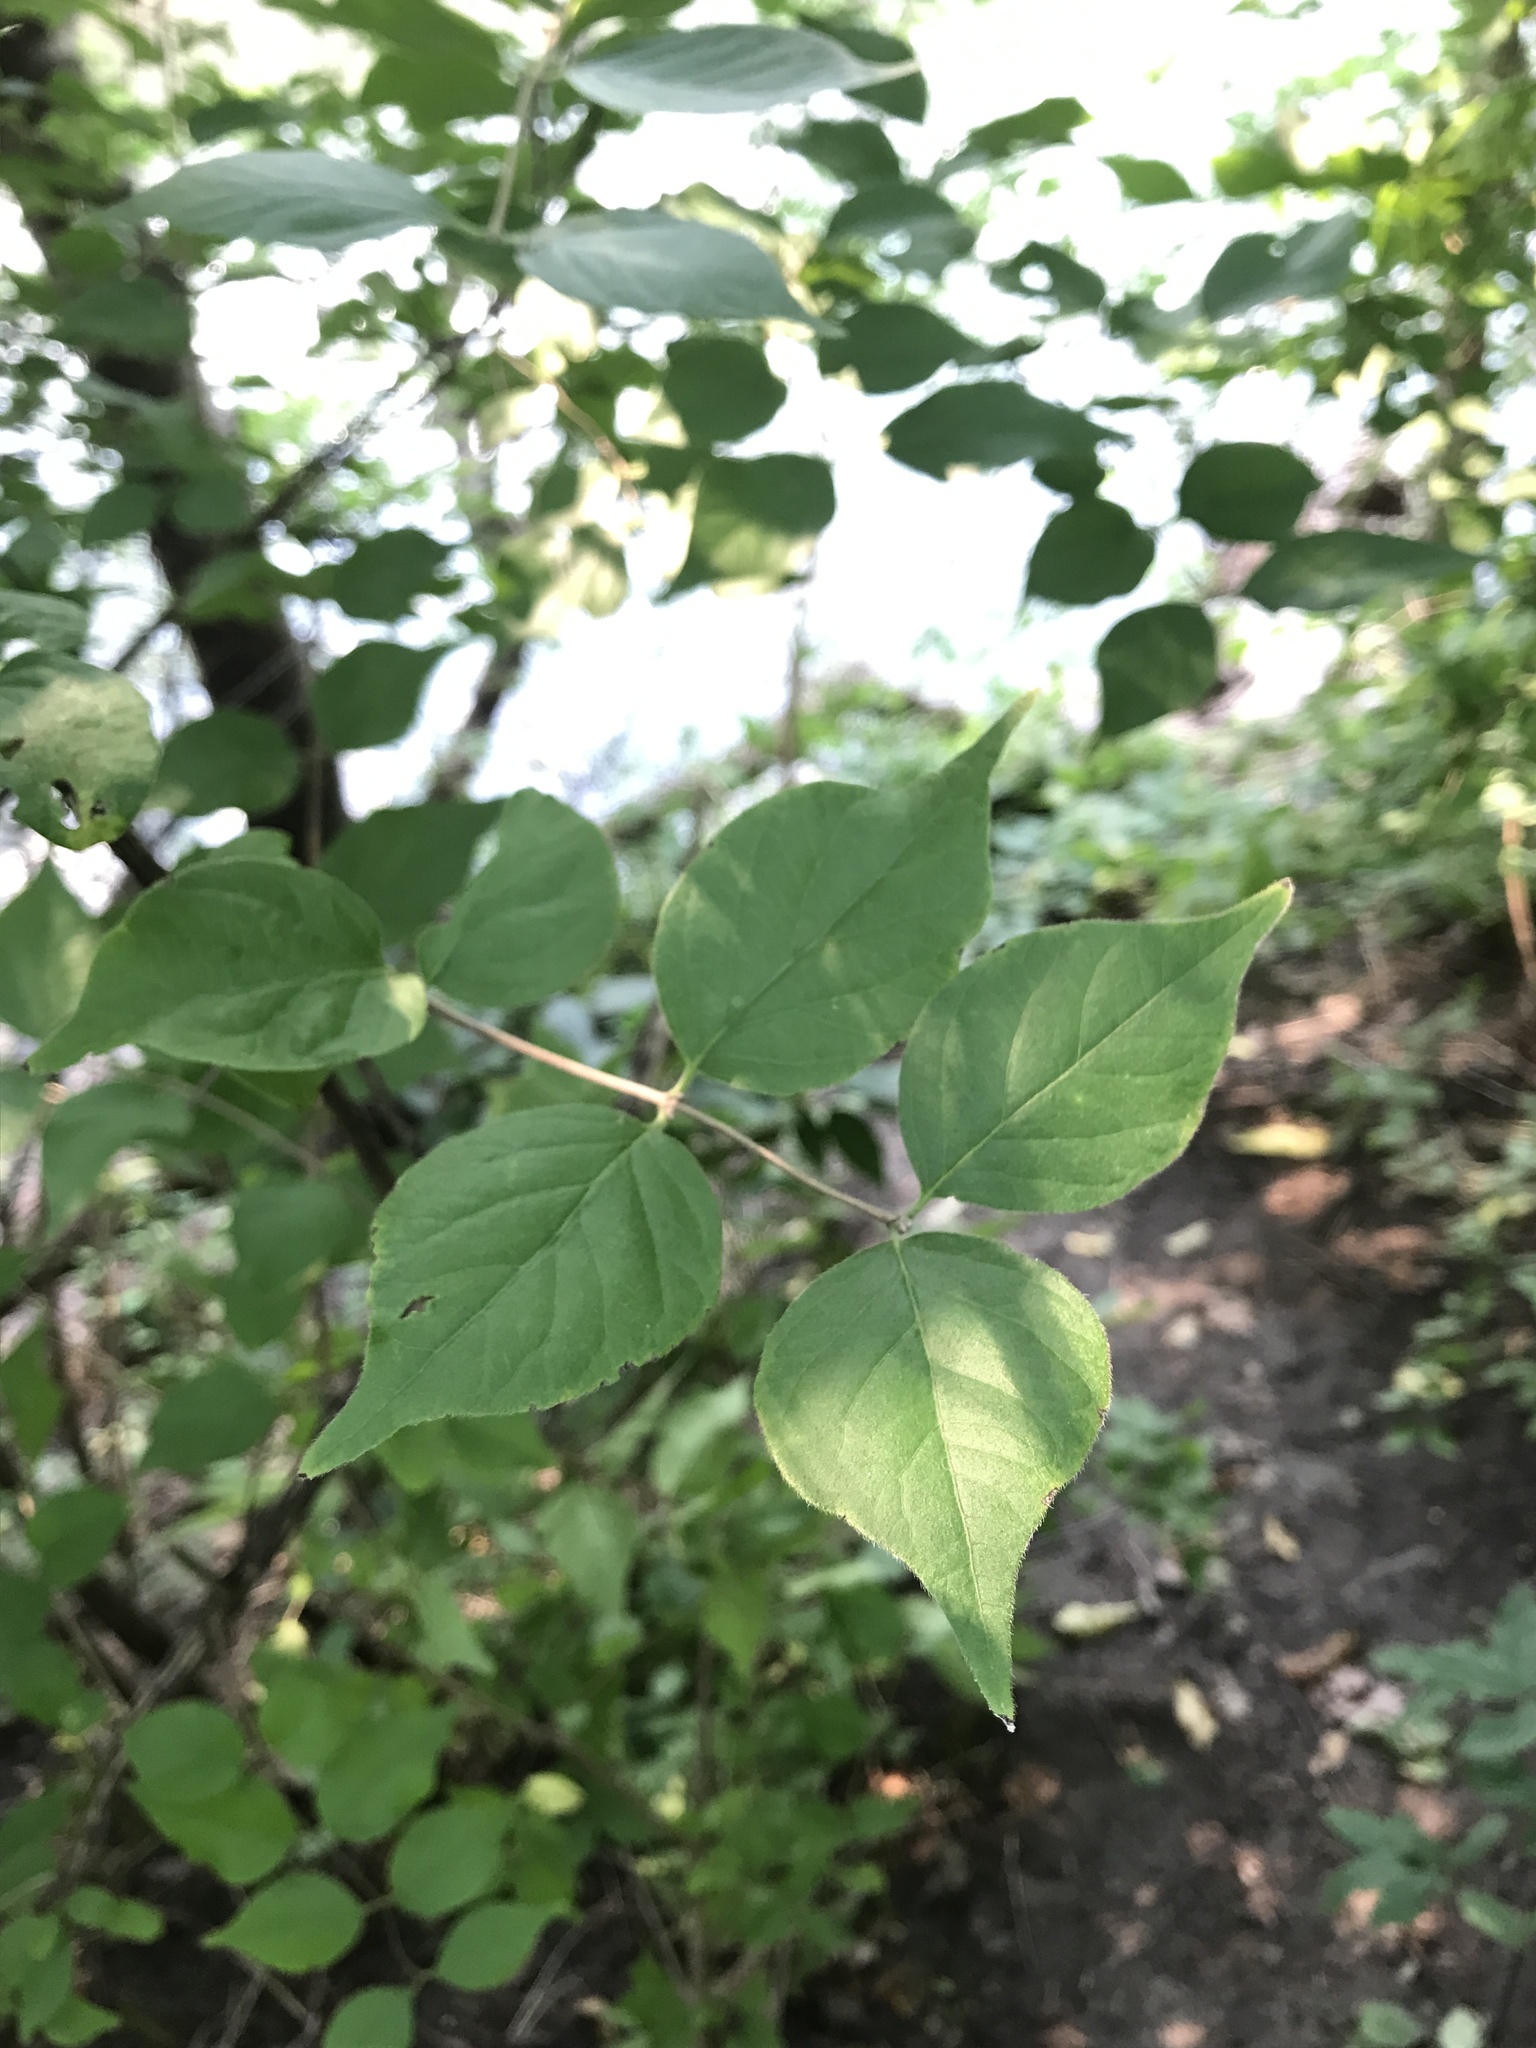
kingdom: Plantae
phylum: Tracheophyta
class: Magnoliopsida
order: Dipsacales
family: Caprifoliaceae
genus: Lonicera
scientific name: Lonicera maackii
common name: Amur honeysuckle
